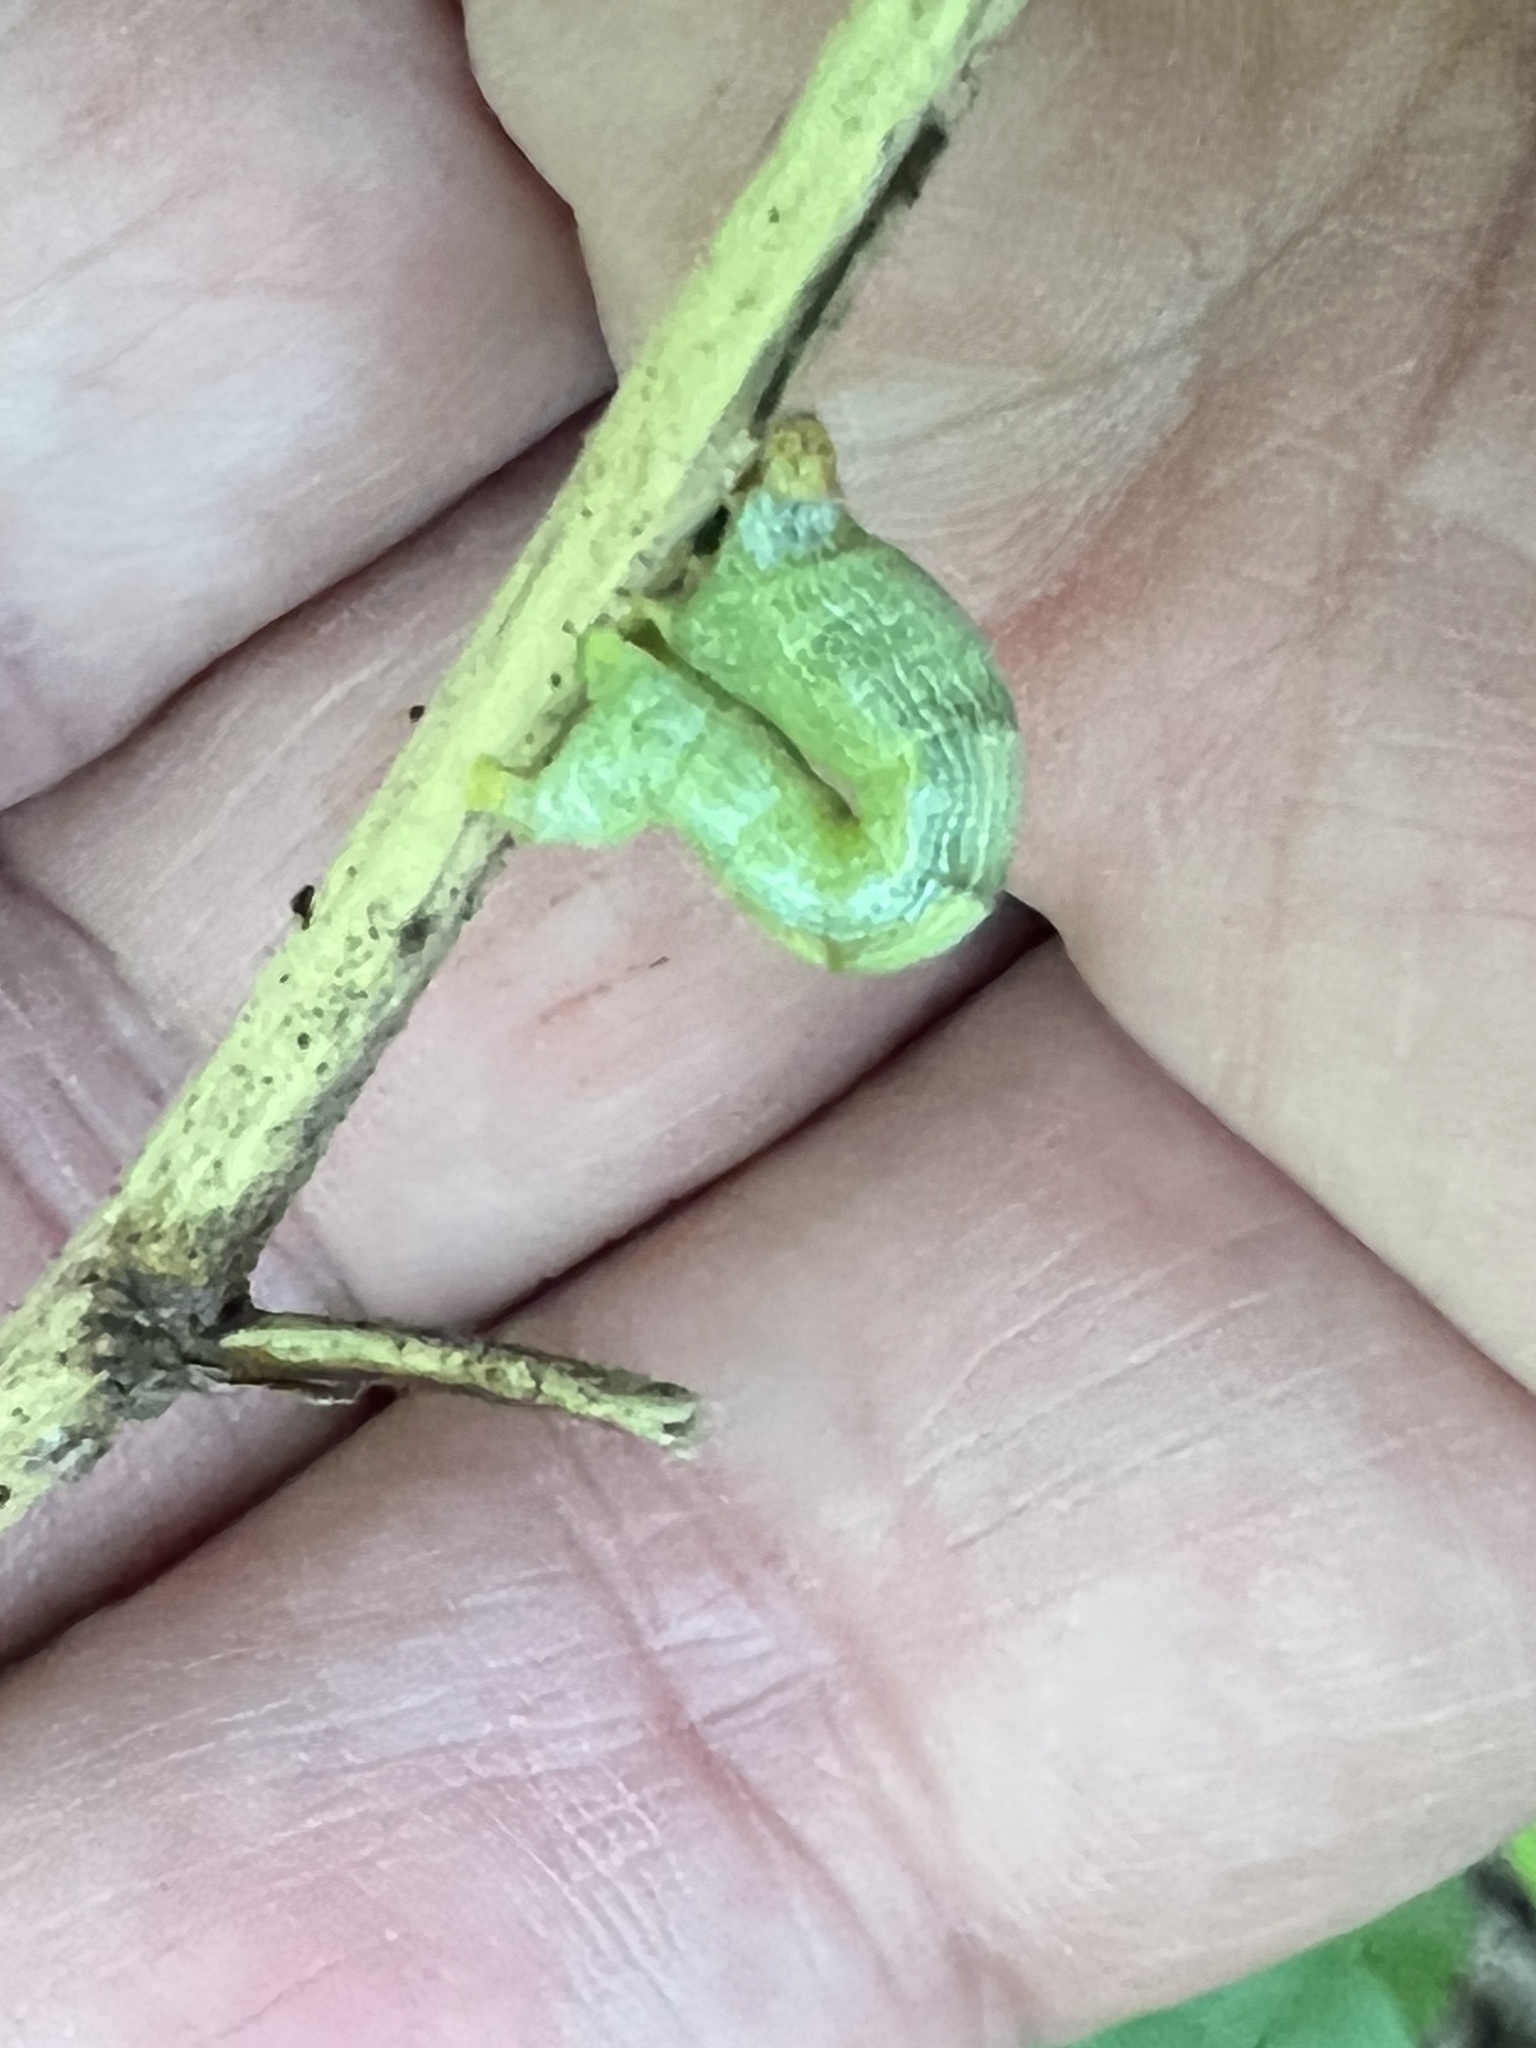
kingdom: Animalia
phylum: Arthropoda
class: Insecta
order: Lepidoptera
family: Geometridae
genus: Epimecis
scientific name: Epimecis hortaria
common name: Tulip-tree beauty
